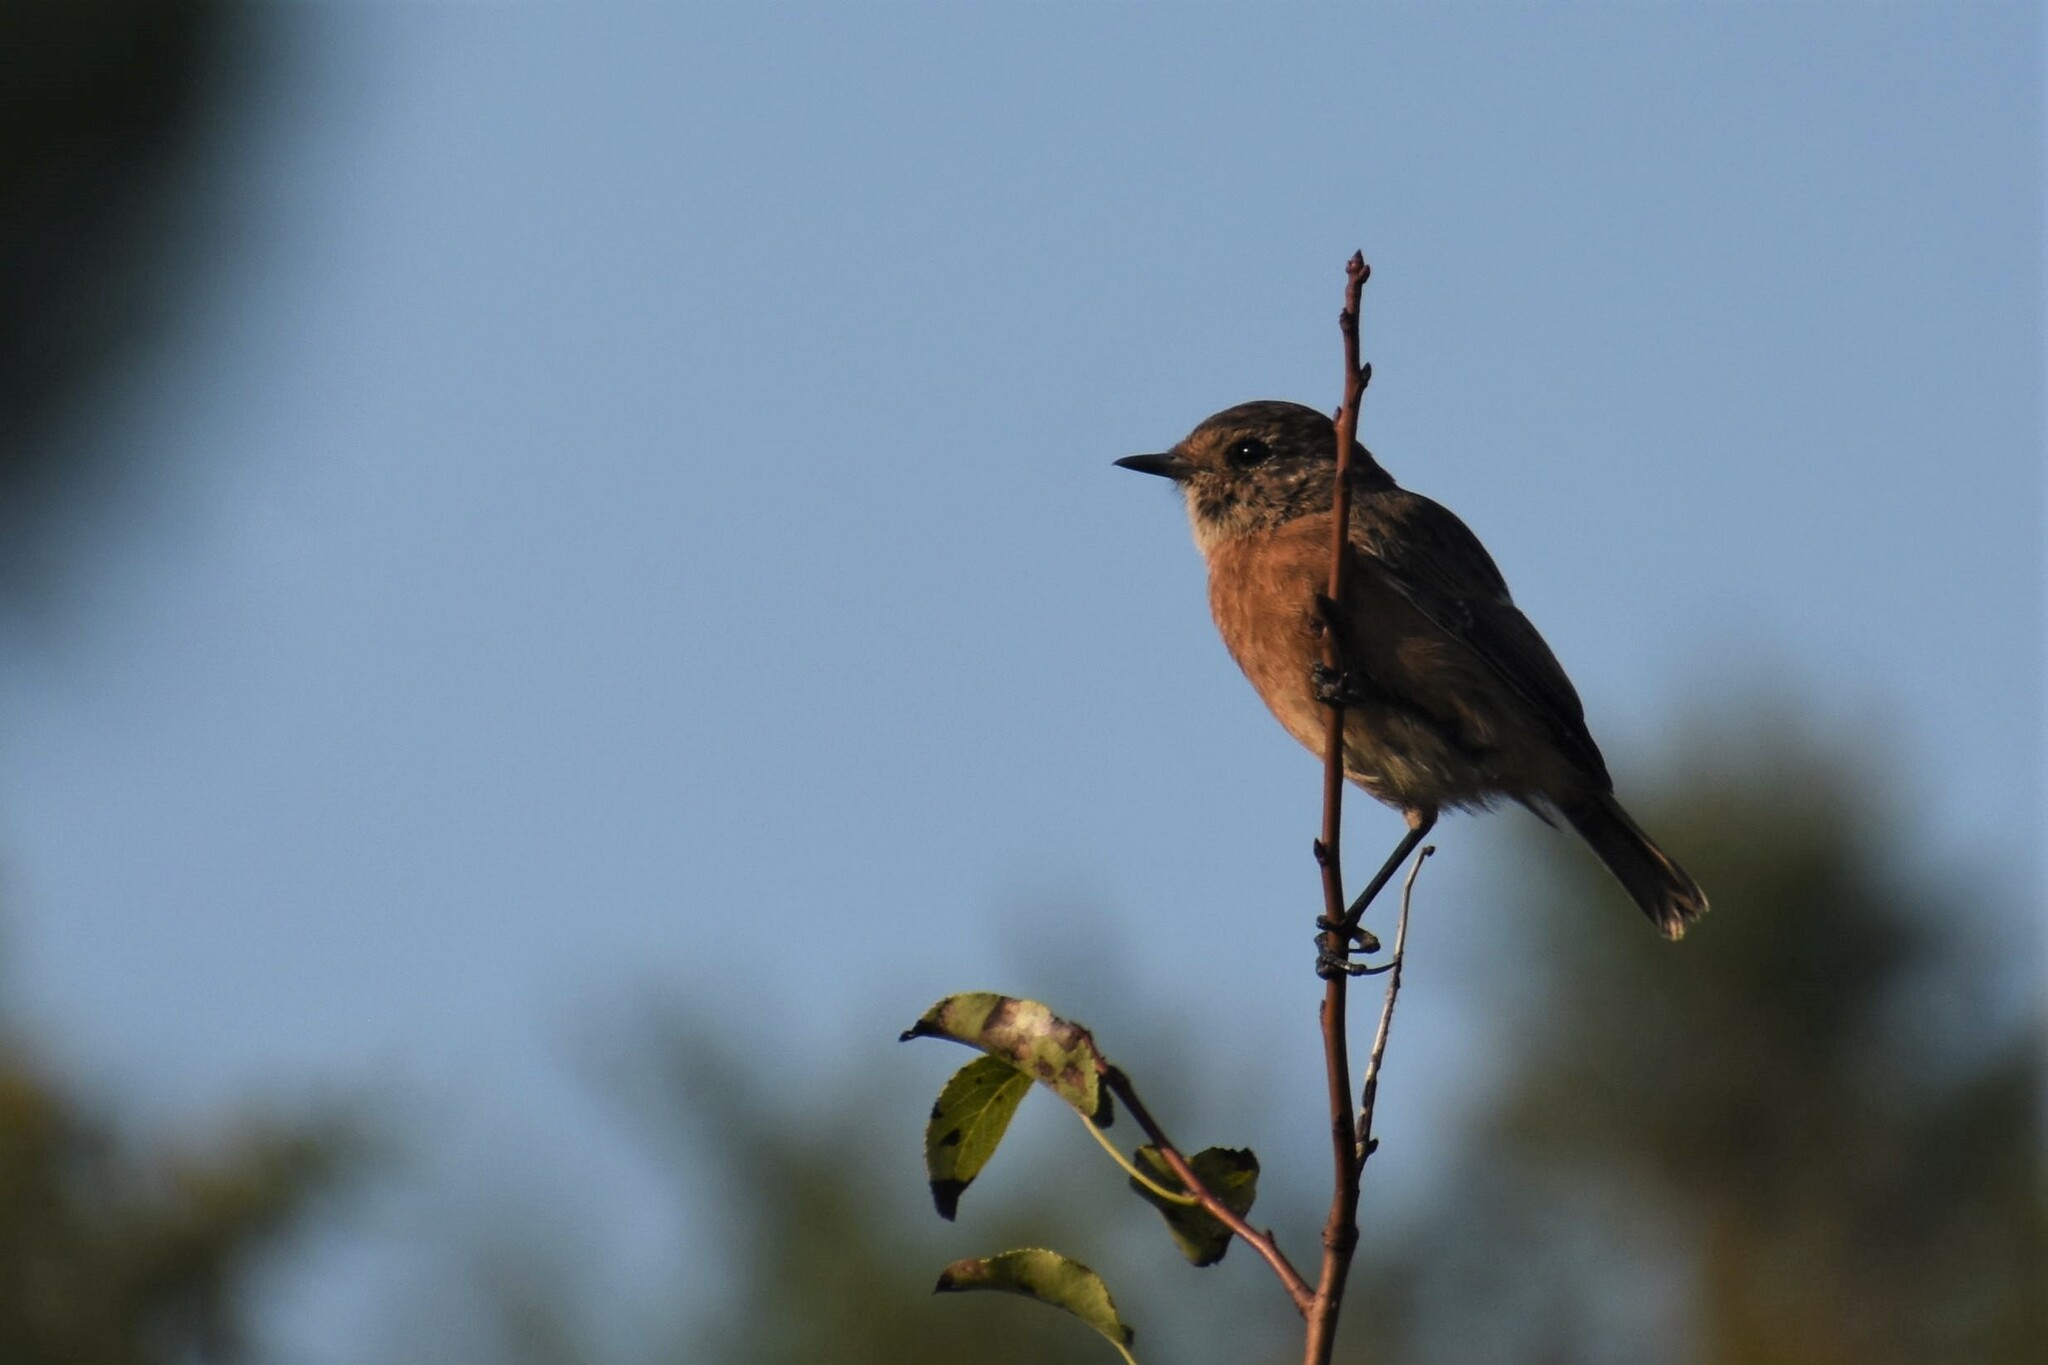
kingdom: Animalia
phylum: Chordata
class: Aves
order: Passeriformes
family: Muscicapidae
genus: Saxicola
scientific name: Saxicola rubicola
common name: European stonechat
